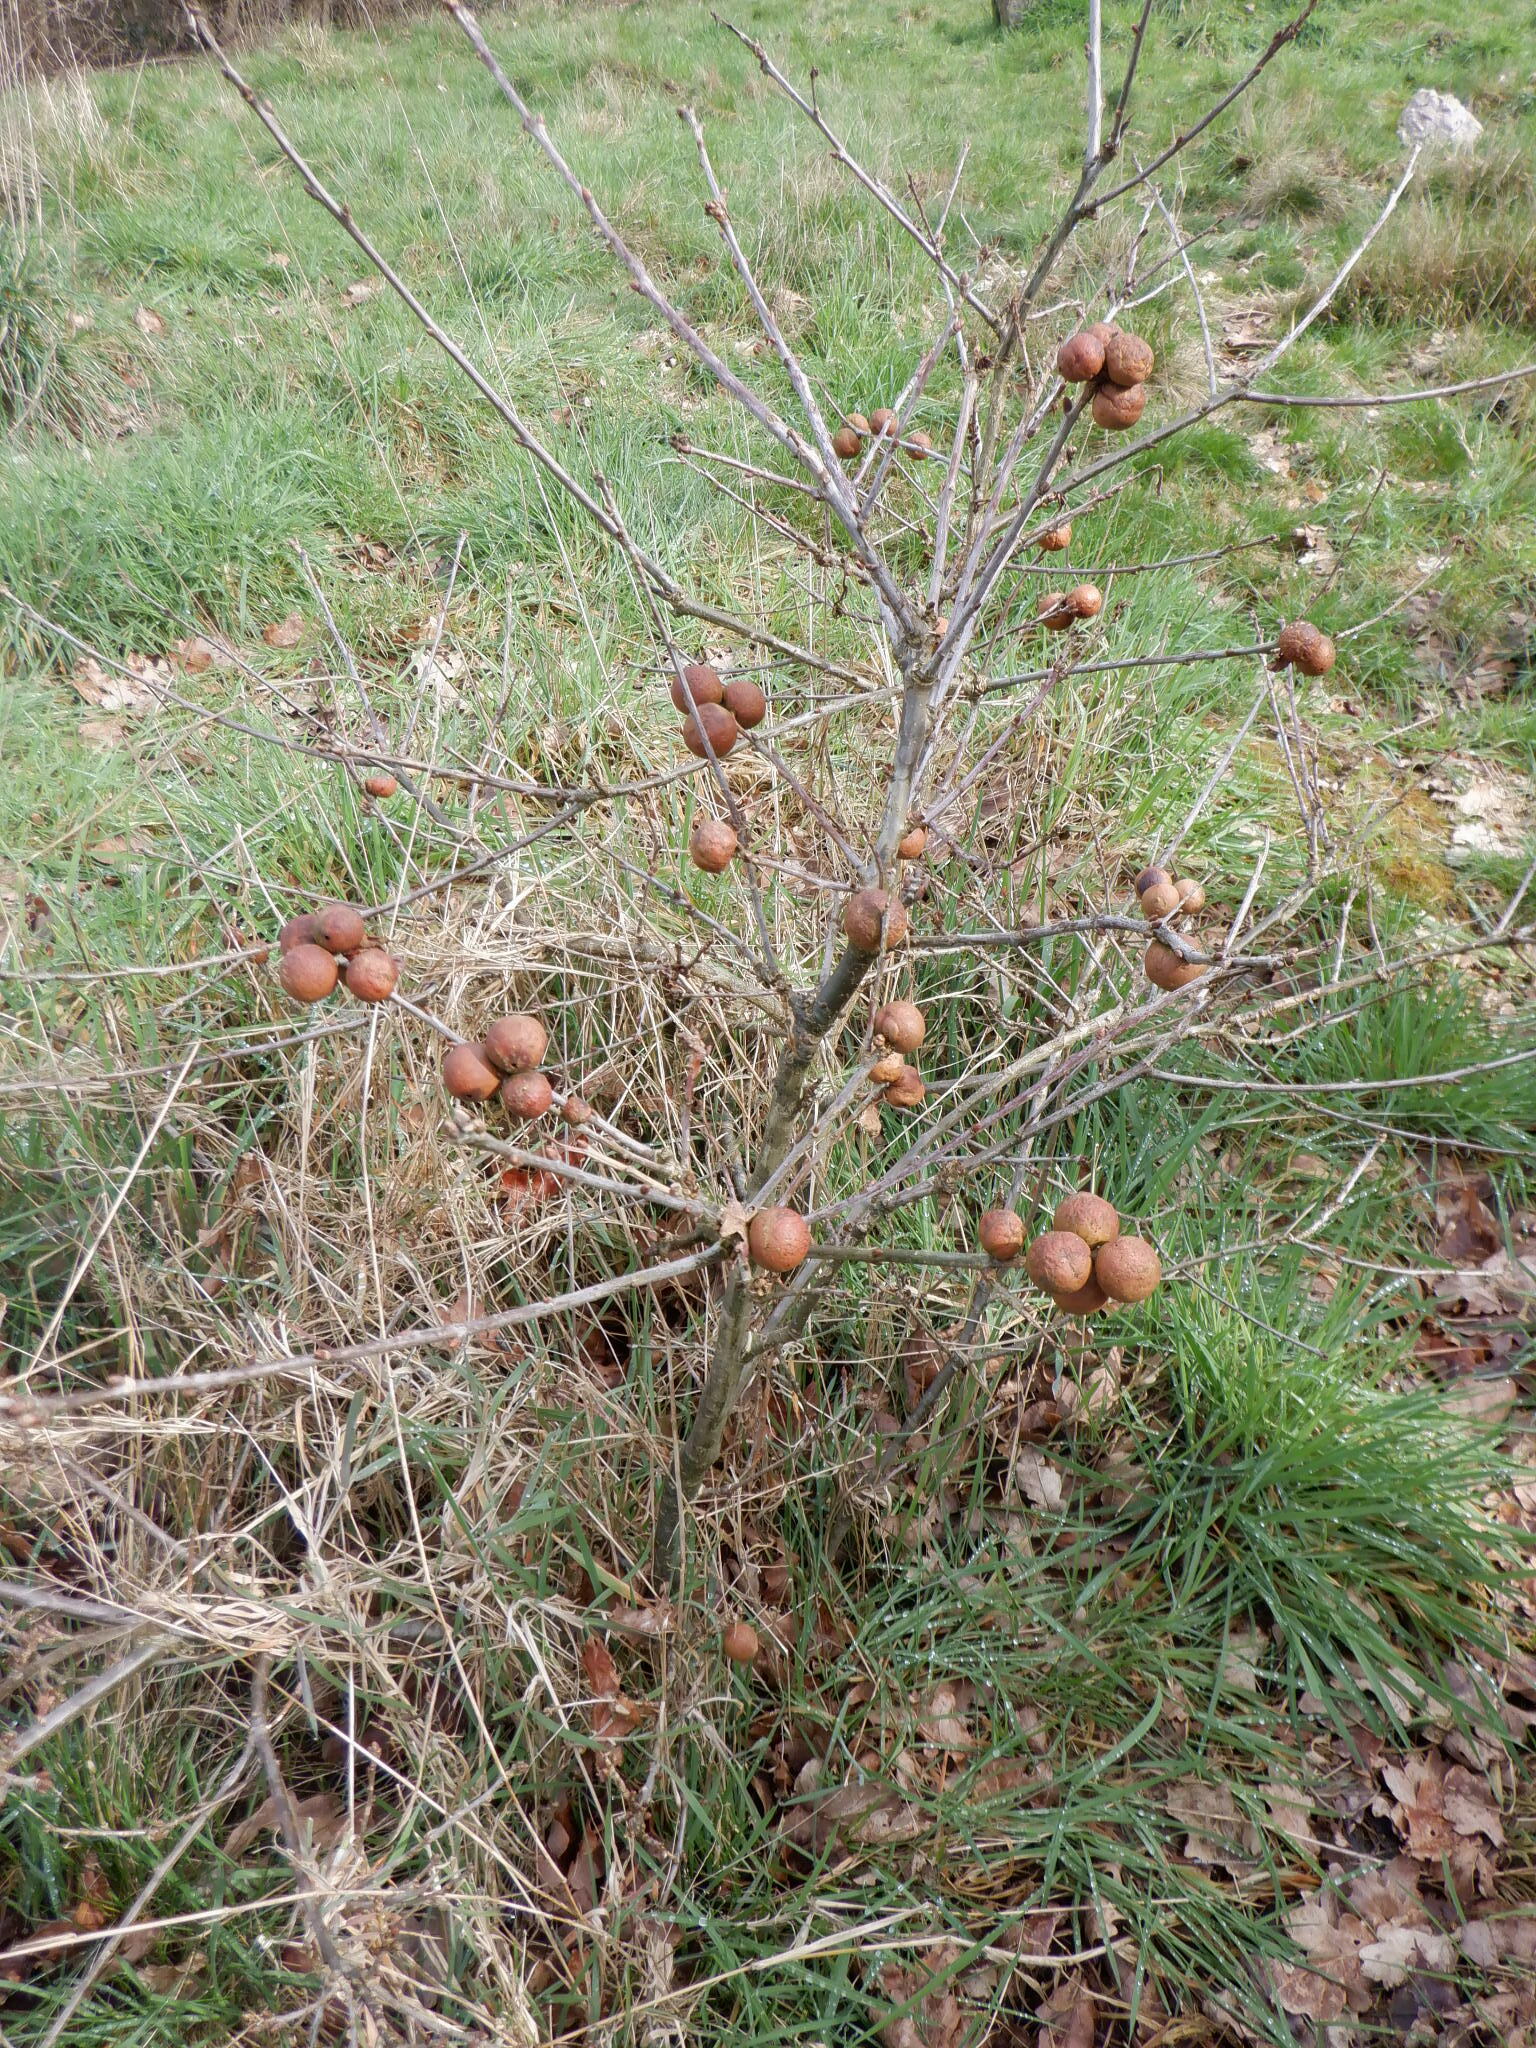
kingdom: Animalia
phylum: Arthropoda
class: Insecta
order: Hymenoptera
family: Cynipidae
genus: Andricus
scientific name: Andricus kollari
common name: Marble gall
